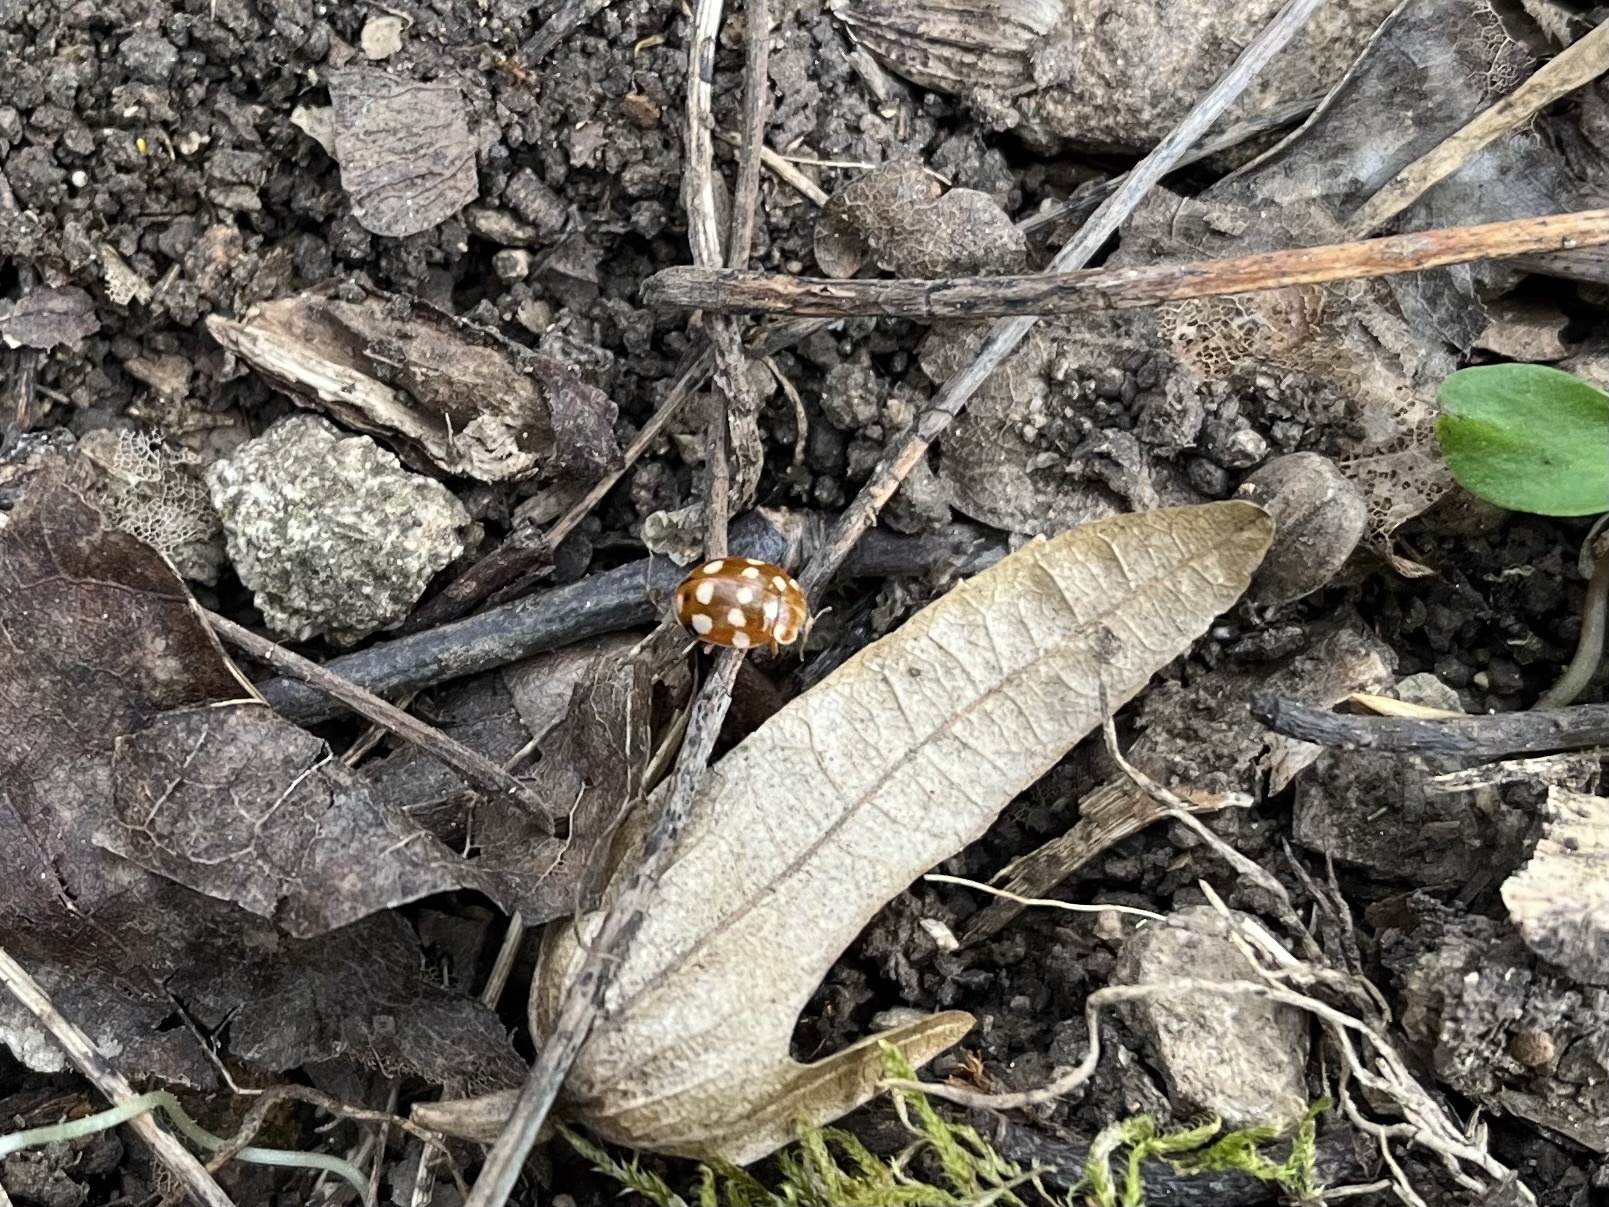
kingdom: Animalia
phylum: Arthropoda
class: Insecta
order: Coleoptera
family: Coccinellidae
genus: Calvia
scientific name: Calvia quatuordecimguttata
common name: Cream-spot ladybird
